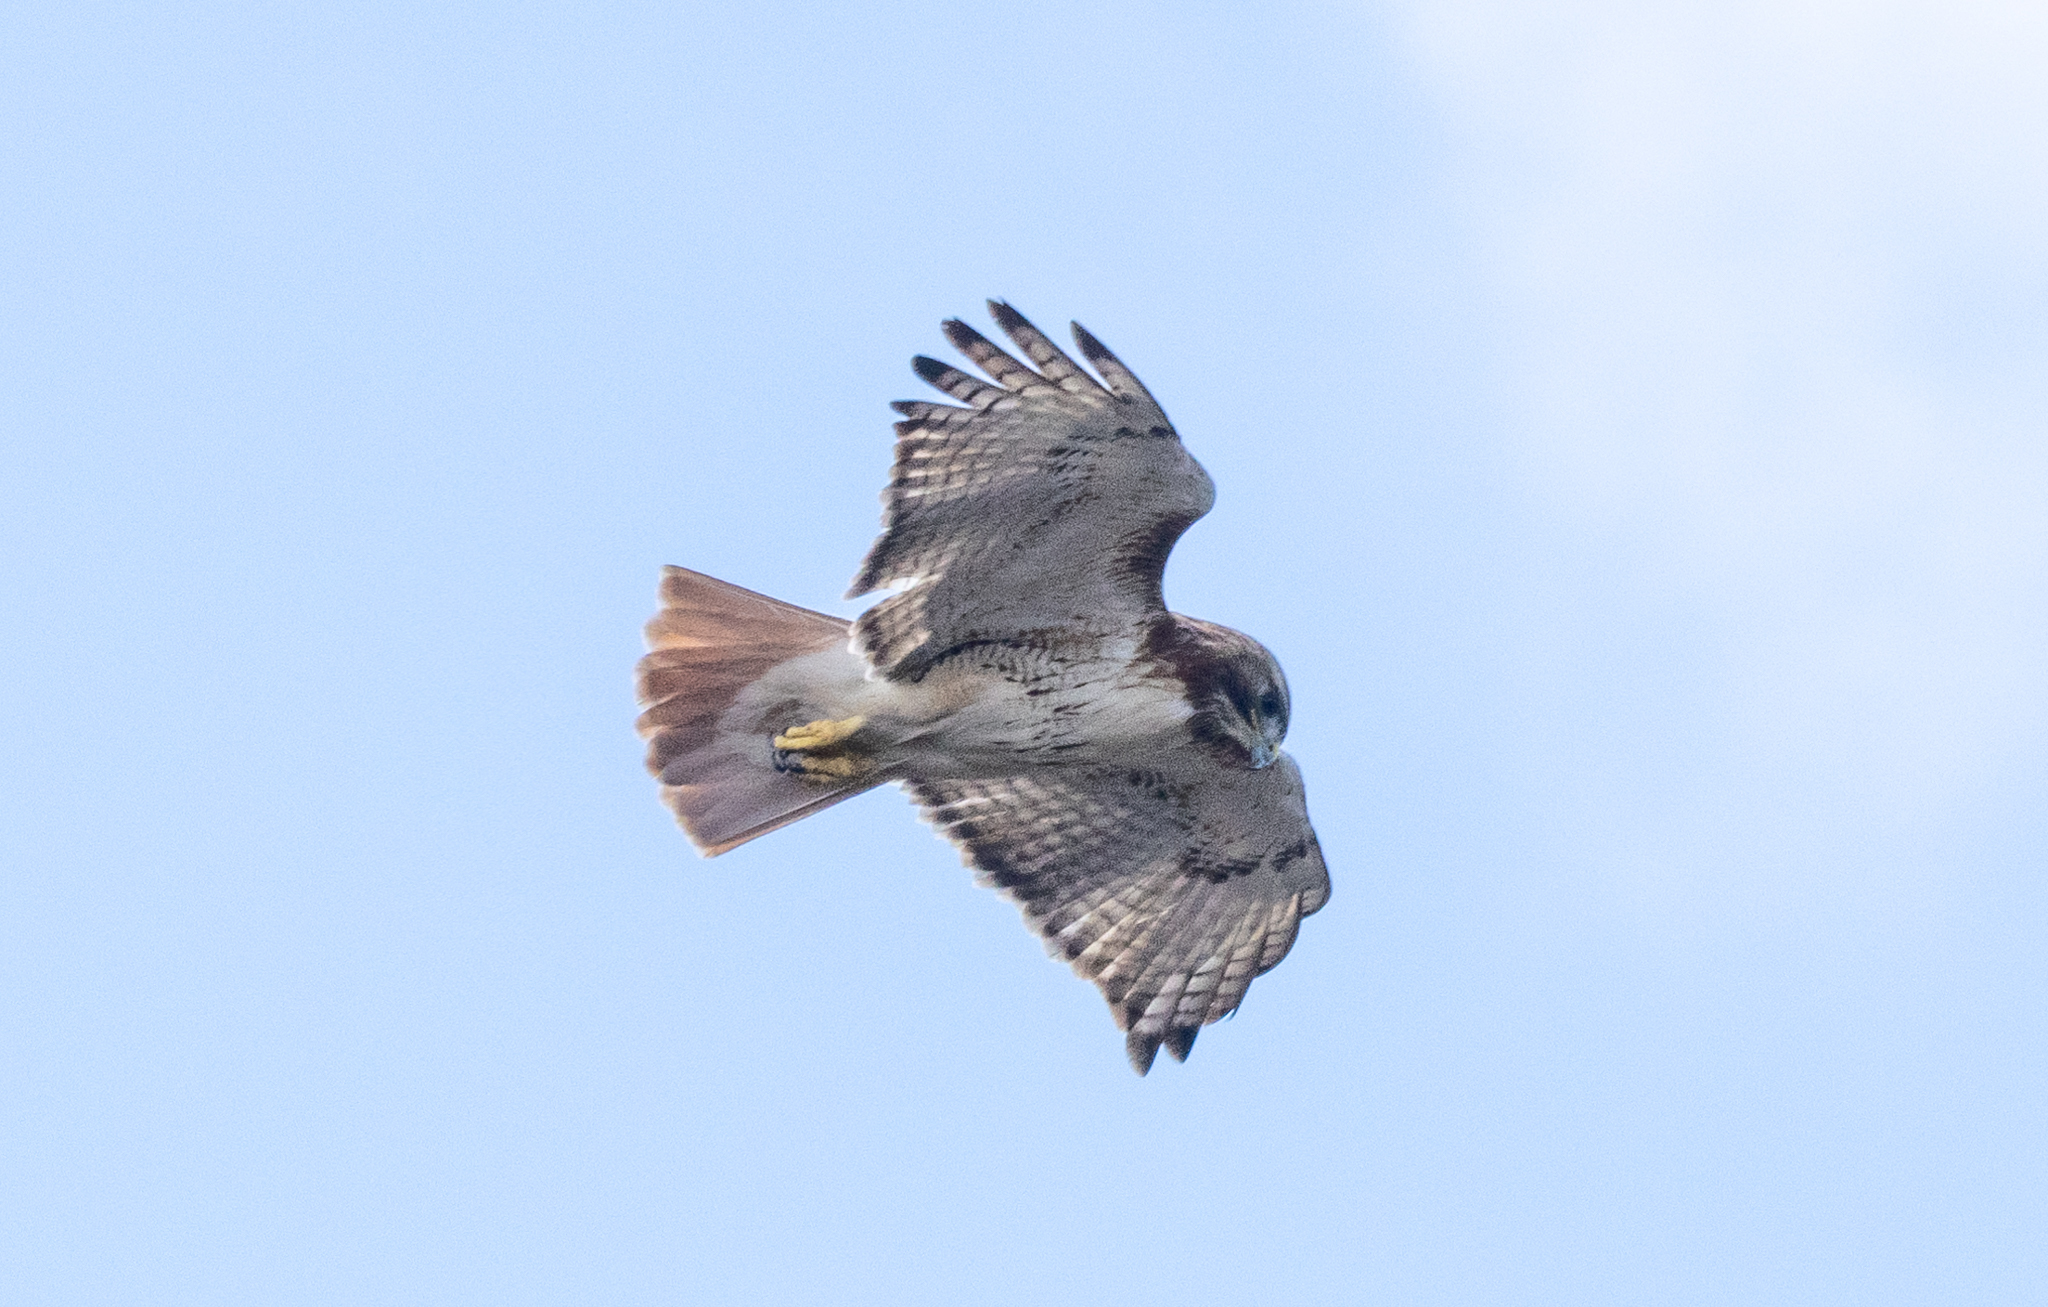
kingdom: Animalia
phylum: Chordata
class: Aves
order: Accipitriformes
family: Accipitridae
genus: Buteo
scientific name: Buteo jamaicensis
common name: Red-tailed hawk
